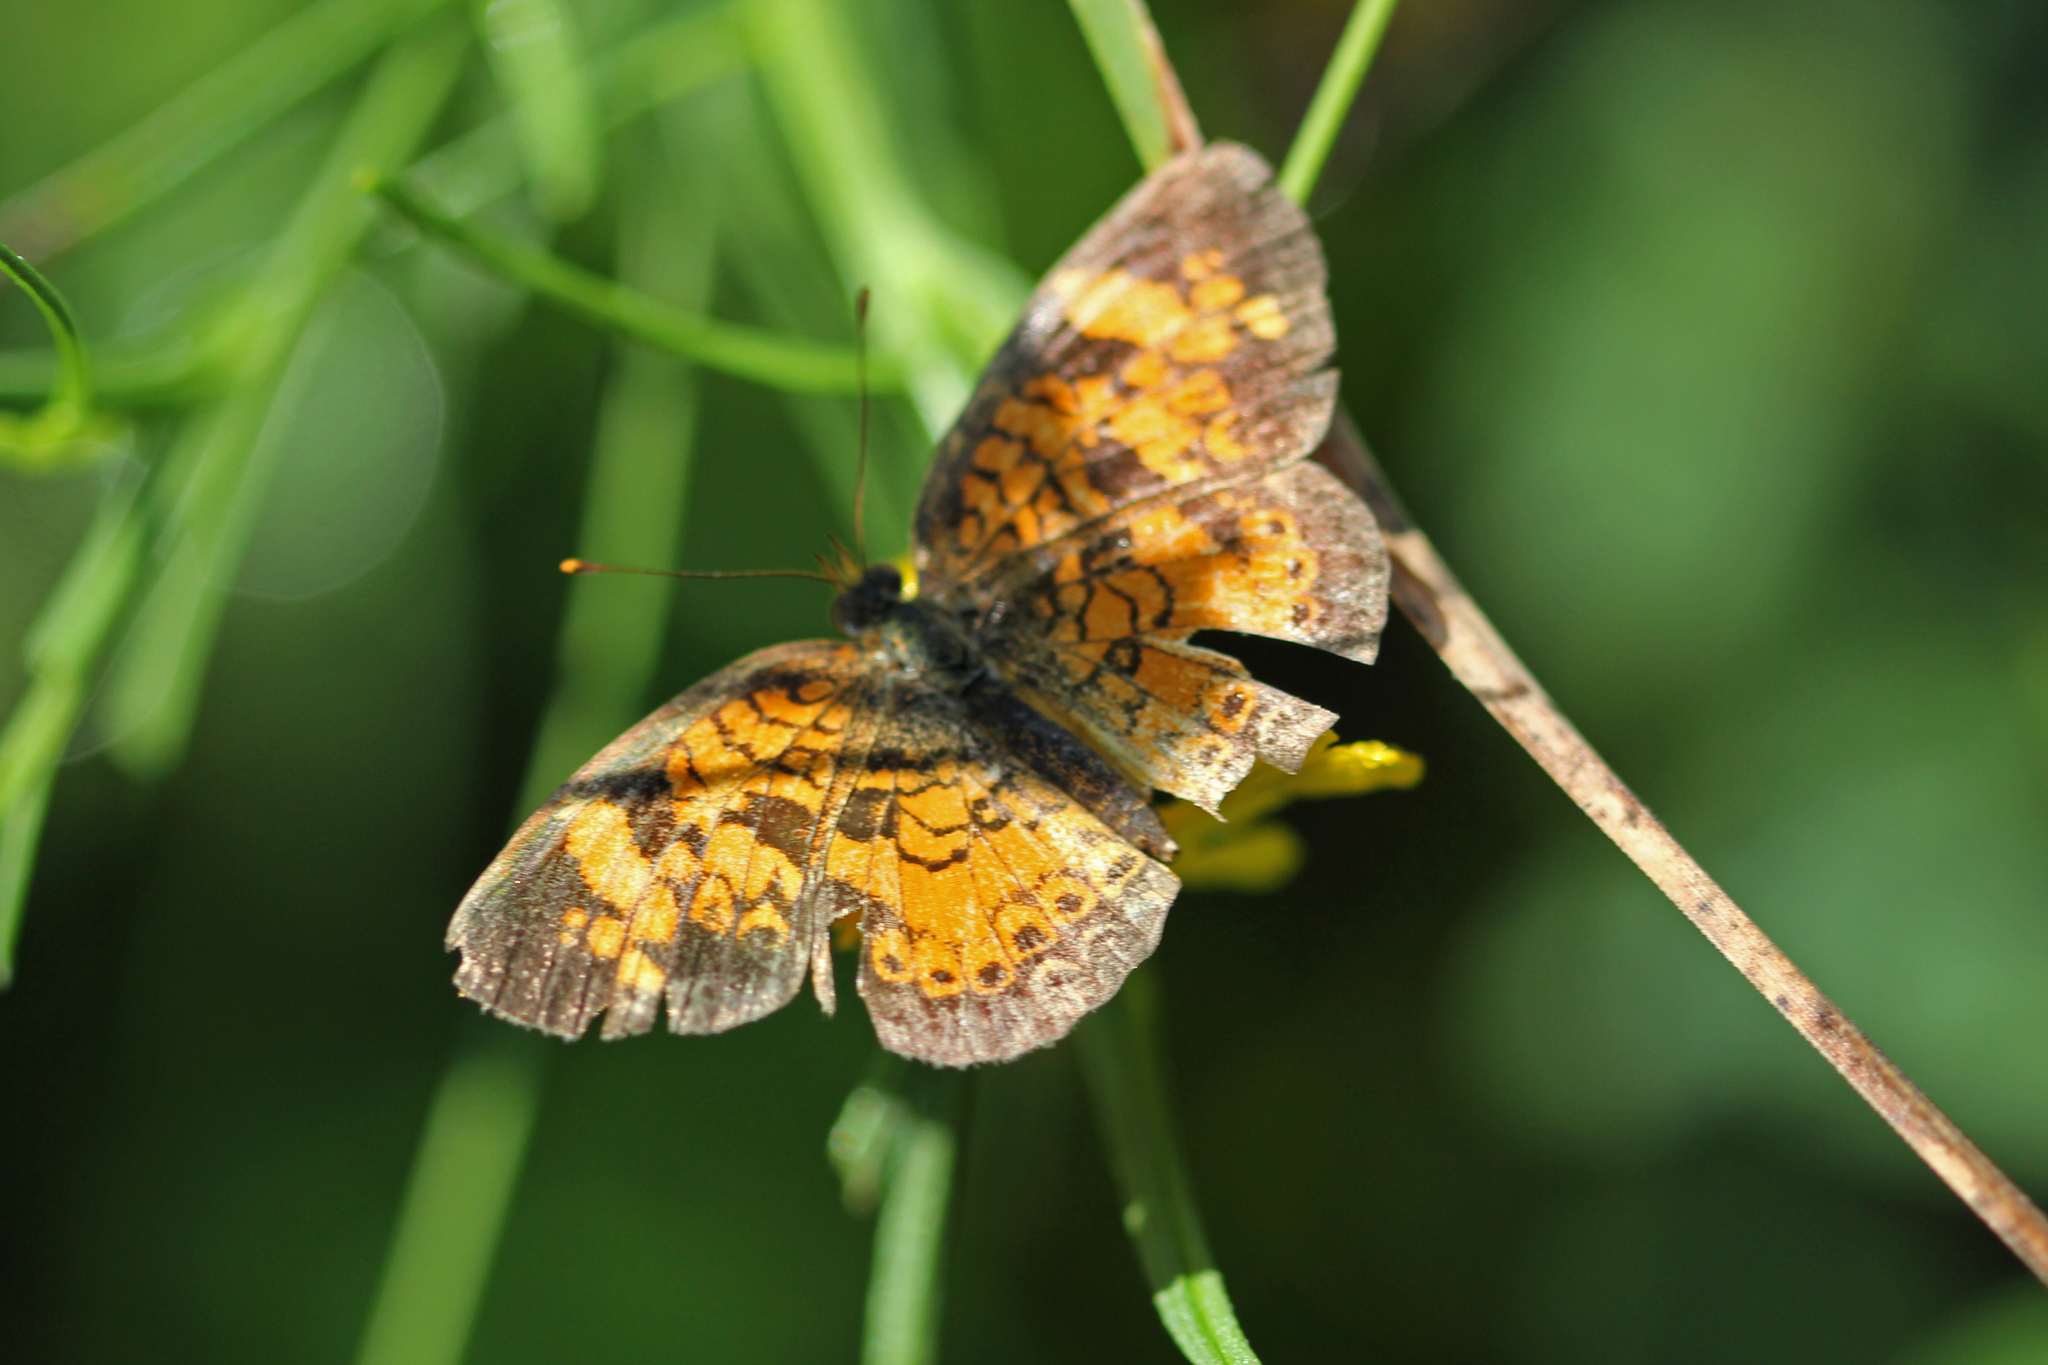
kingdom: Animalia
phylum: Arthropoda
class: Insecta
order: Lepidoptera
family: Nymphalidae
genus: Phyciodes
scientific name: Phyciodes tharos
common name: Pearl crescent
